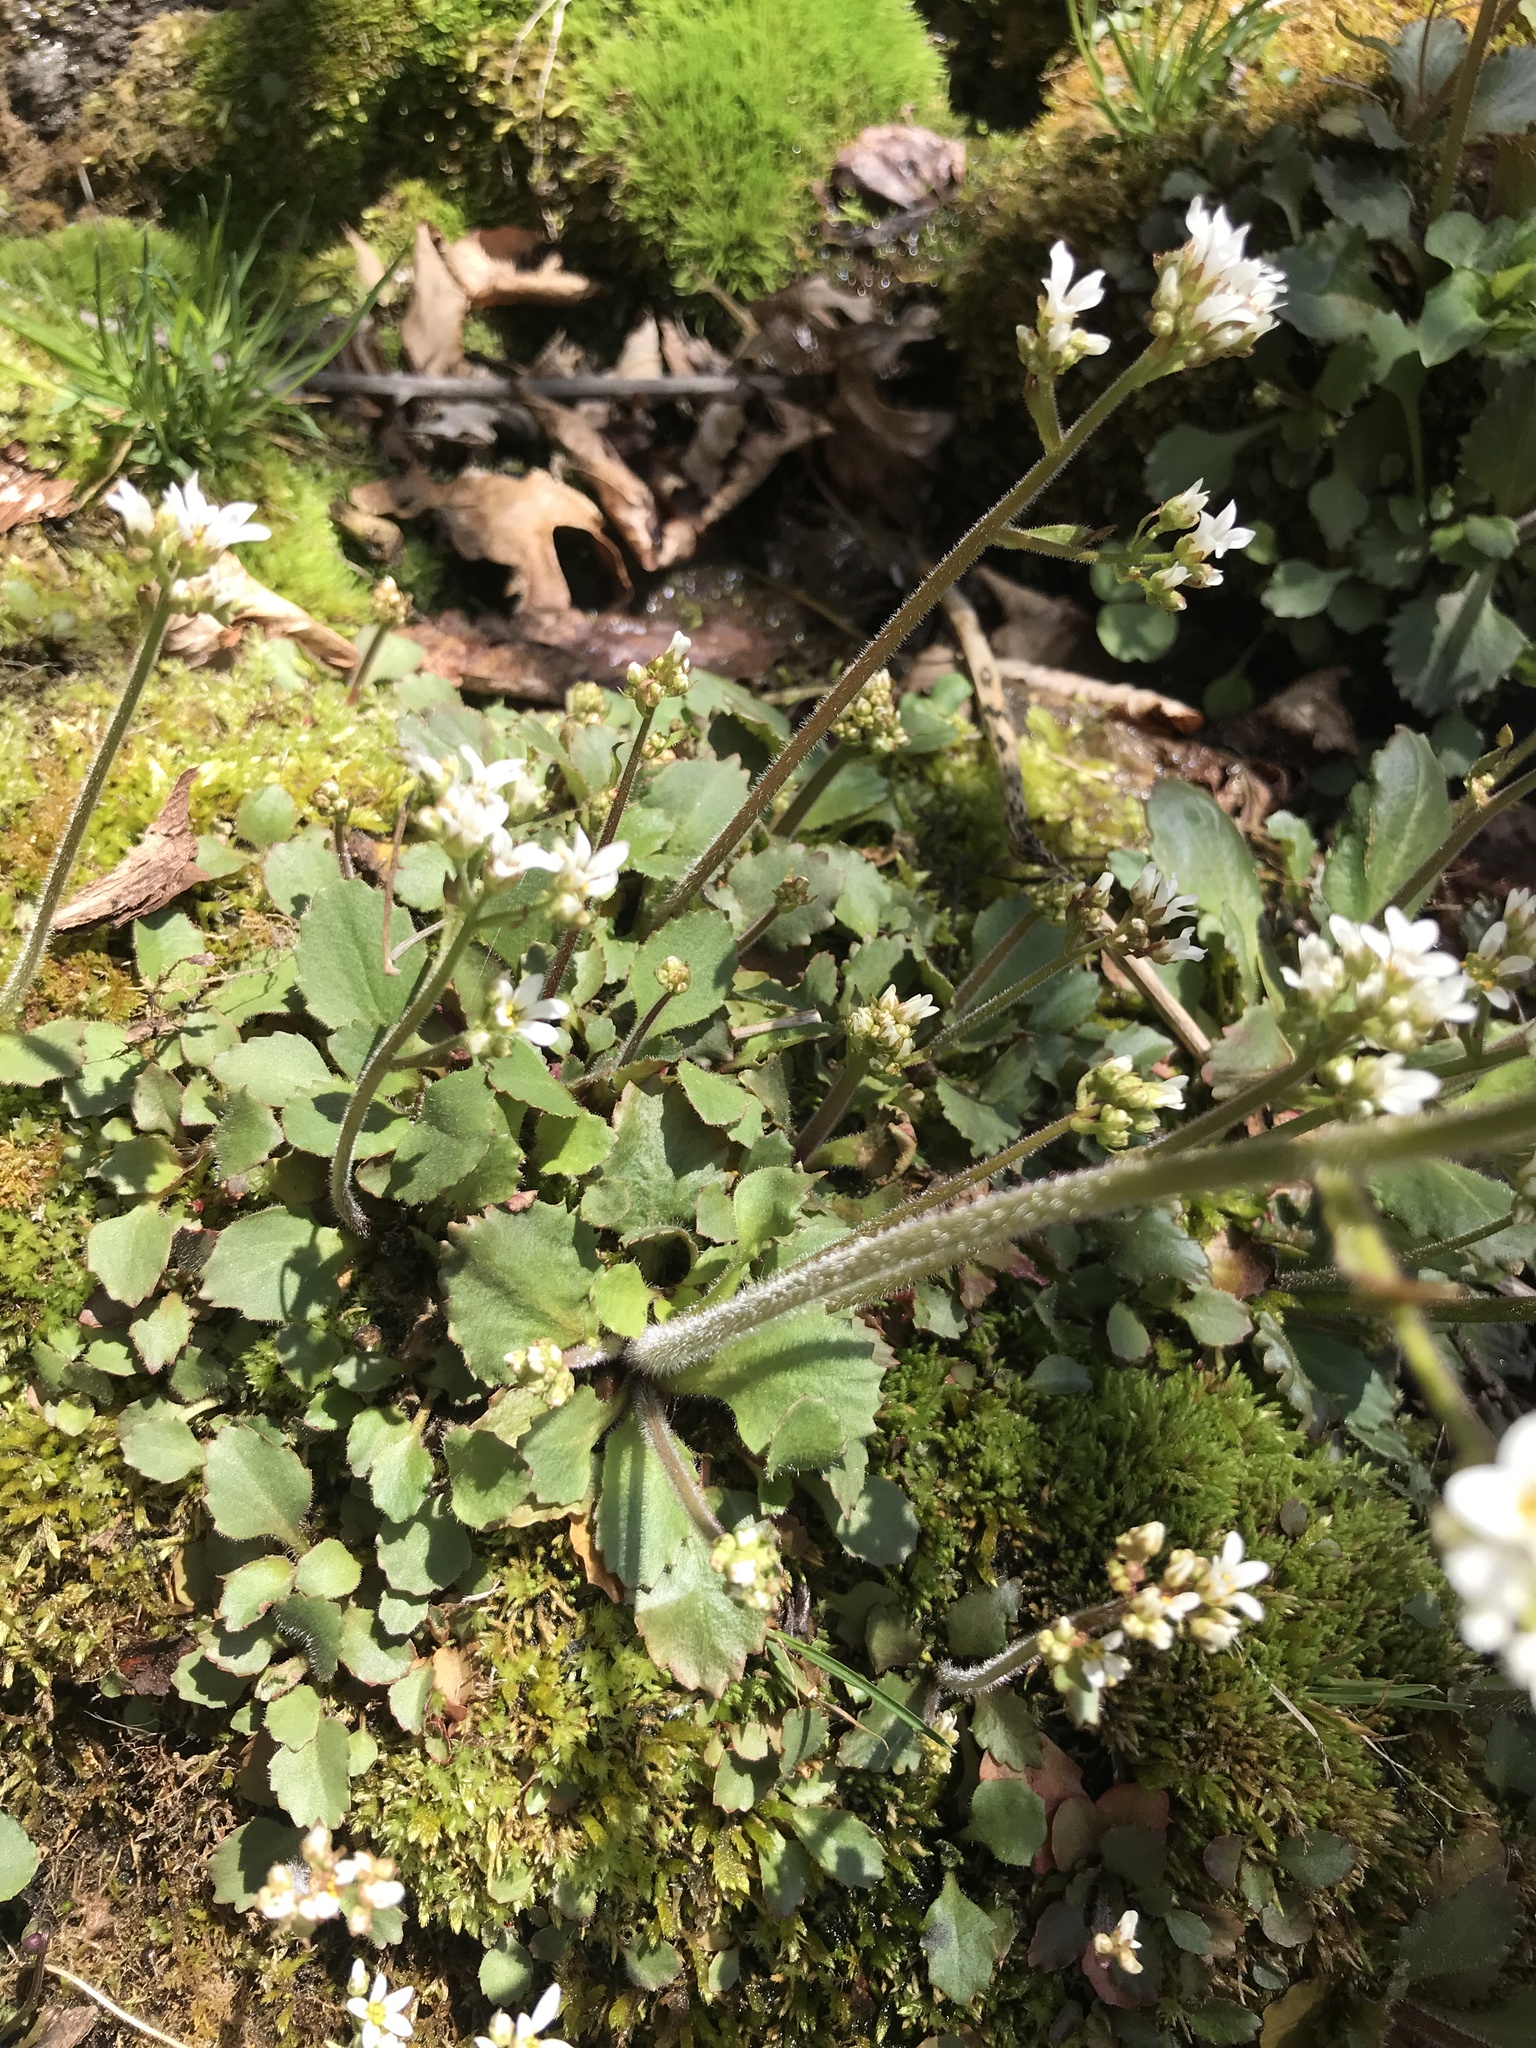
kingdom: Plantae
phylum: Tracheophyta
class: Magnoliopsida
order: Saxifragales
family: Saxifragaceae
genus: Micranthes
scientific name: Micranthes virginiensis
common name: Early saxifrage
